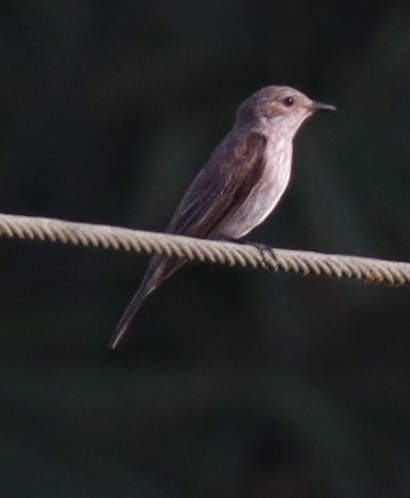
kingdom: Animalia
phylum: Chordata
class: Aves
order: Passeriformes
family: Muscicapidae
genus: Muscicapa
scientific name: Muscicapa striata
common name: Spotted flycatcher
